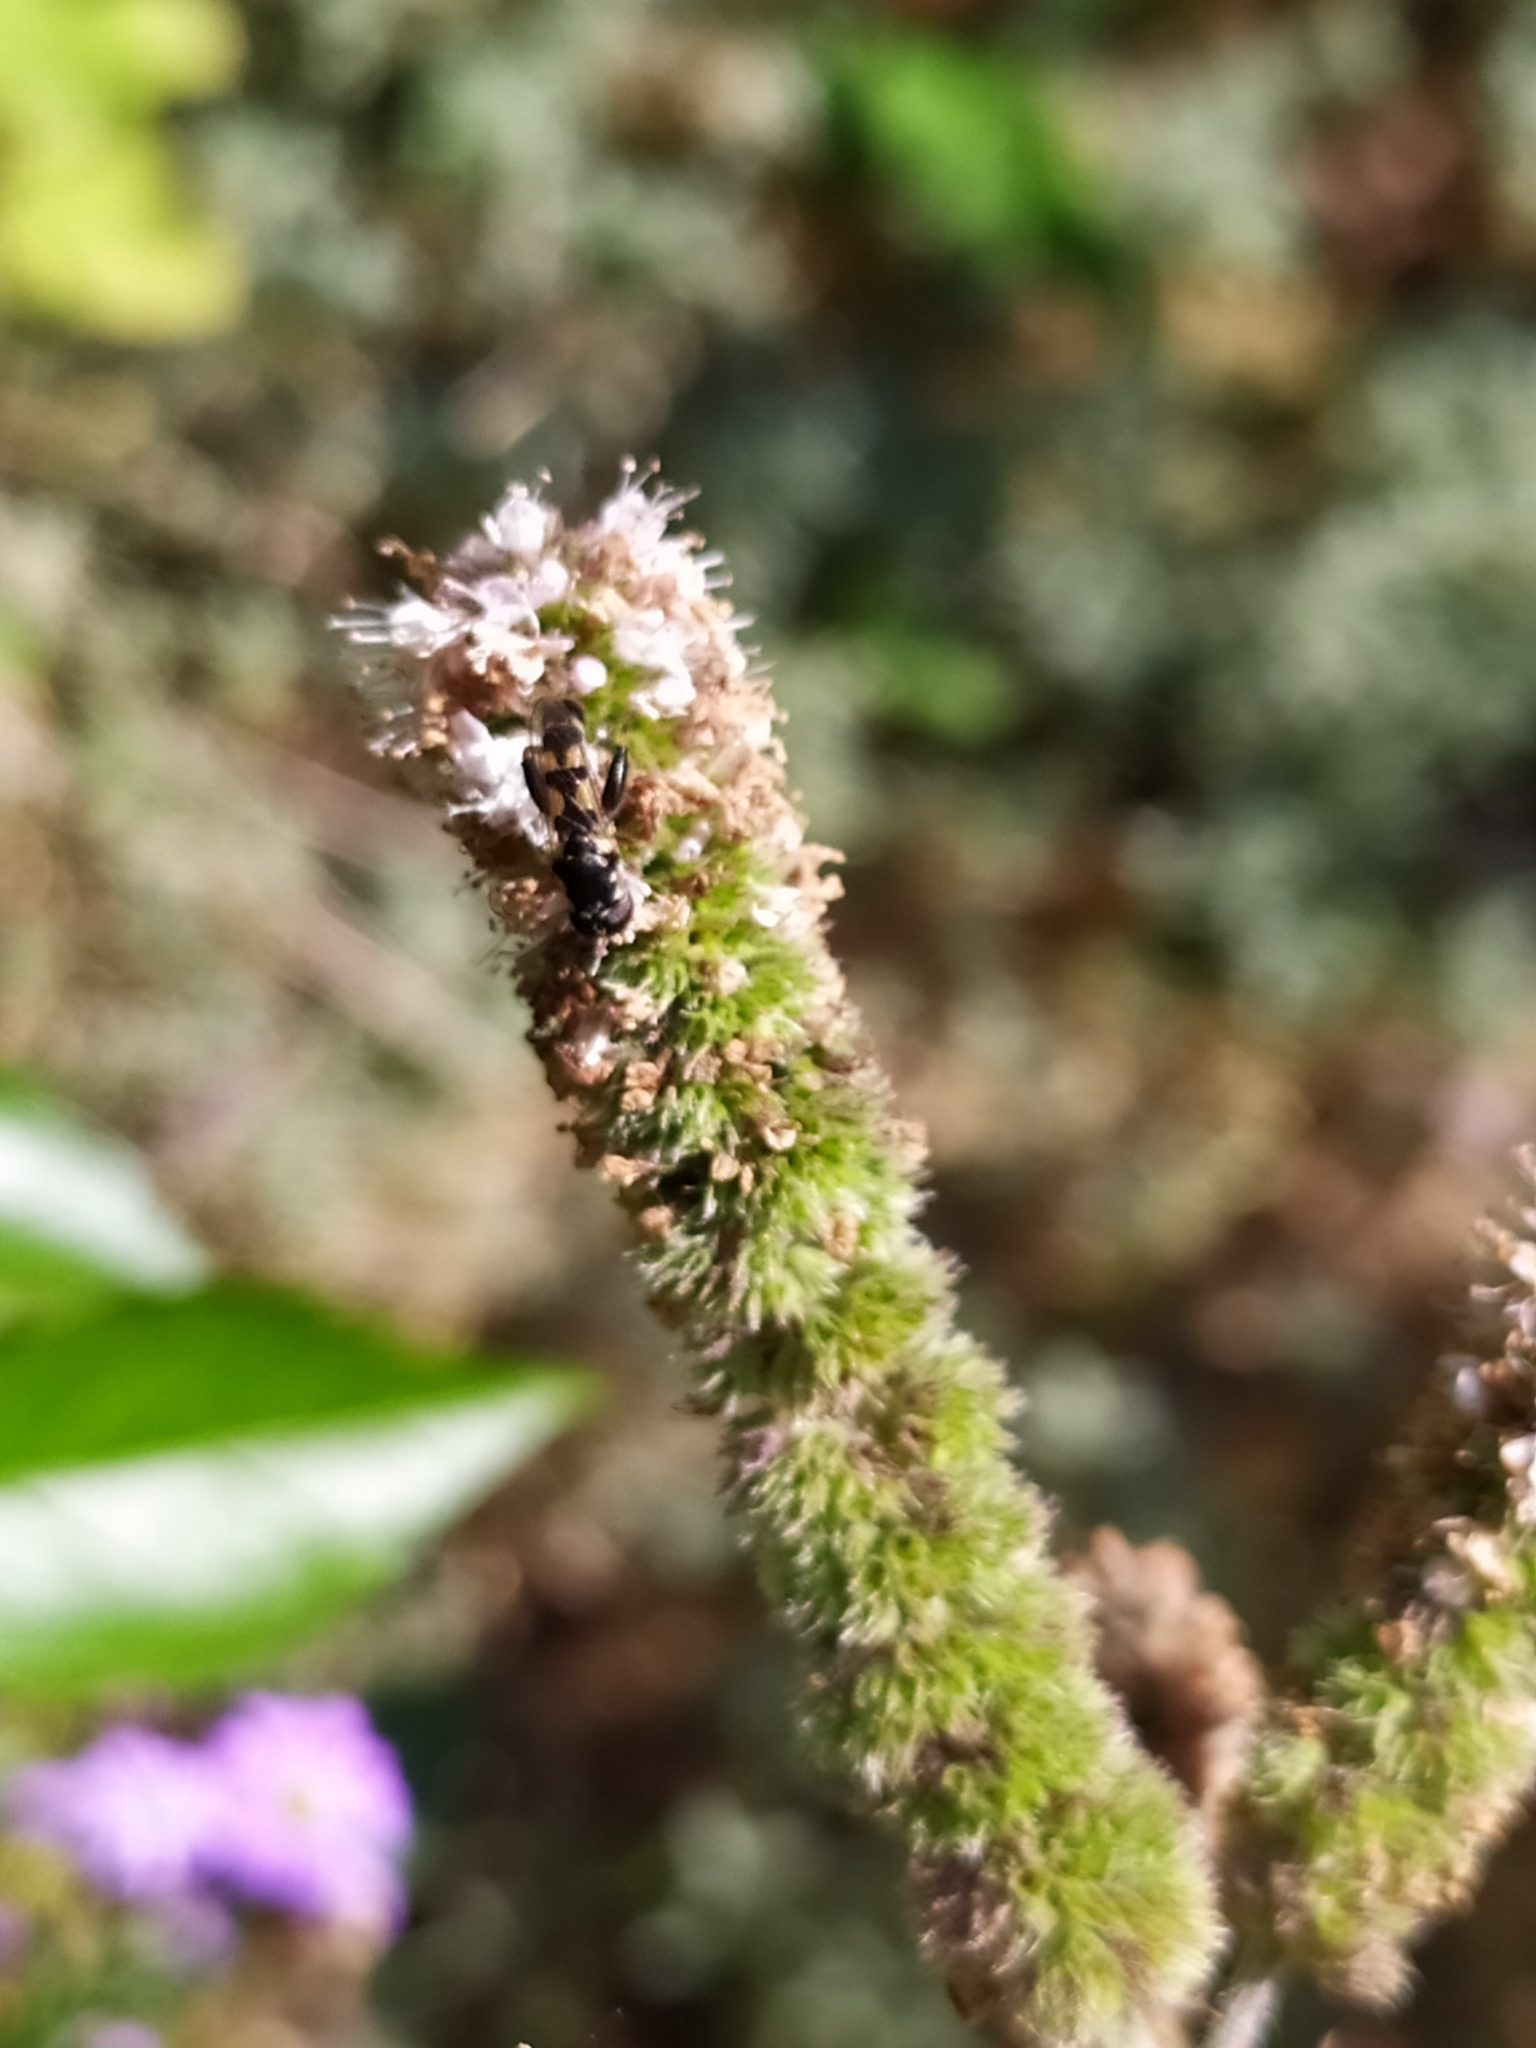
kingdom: Animalia
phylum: Arthropoda
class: Insecta
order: Diptera
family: Syrphidae
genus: Syritta
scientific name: Syritta pipiens
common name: Hover fly
